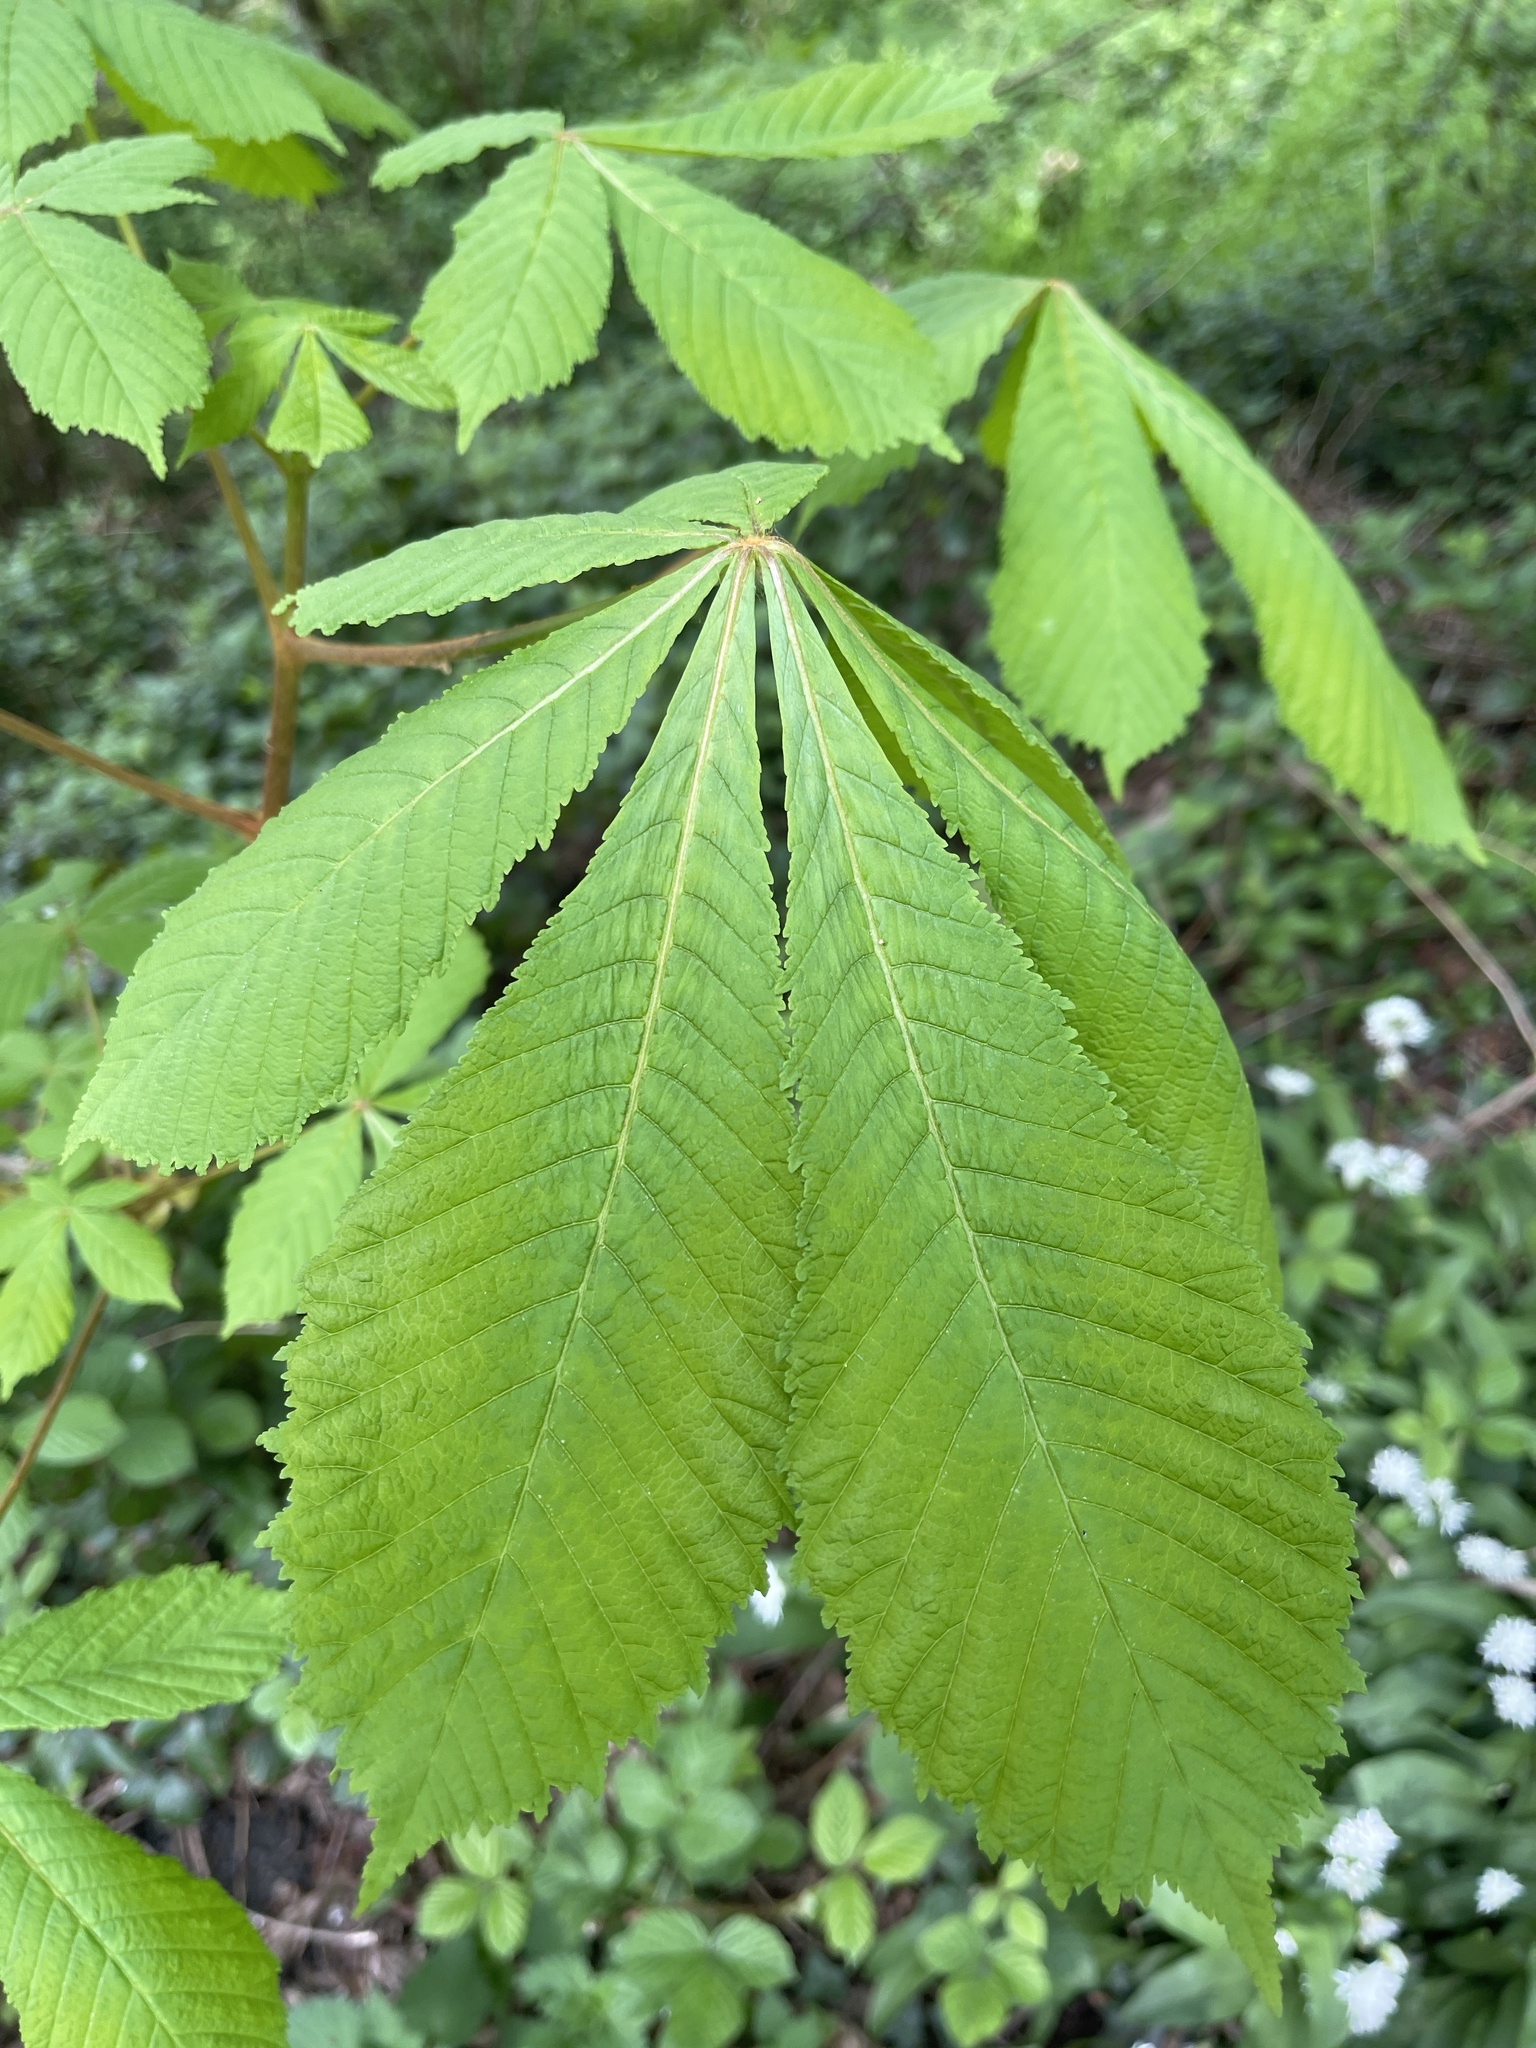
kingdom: Plantae
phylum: Tracheophyta
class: Magnoliopsida
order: Sapindales
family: Sapindaceae
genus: Aesculus
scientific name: Aesculus hippocastanum
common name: Horse-chestnut
